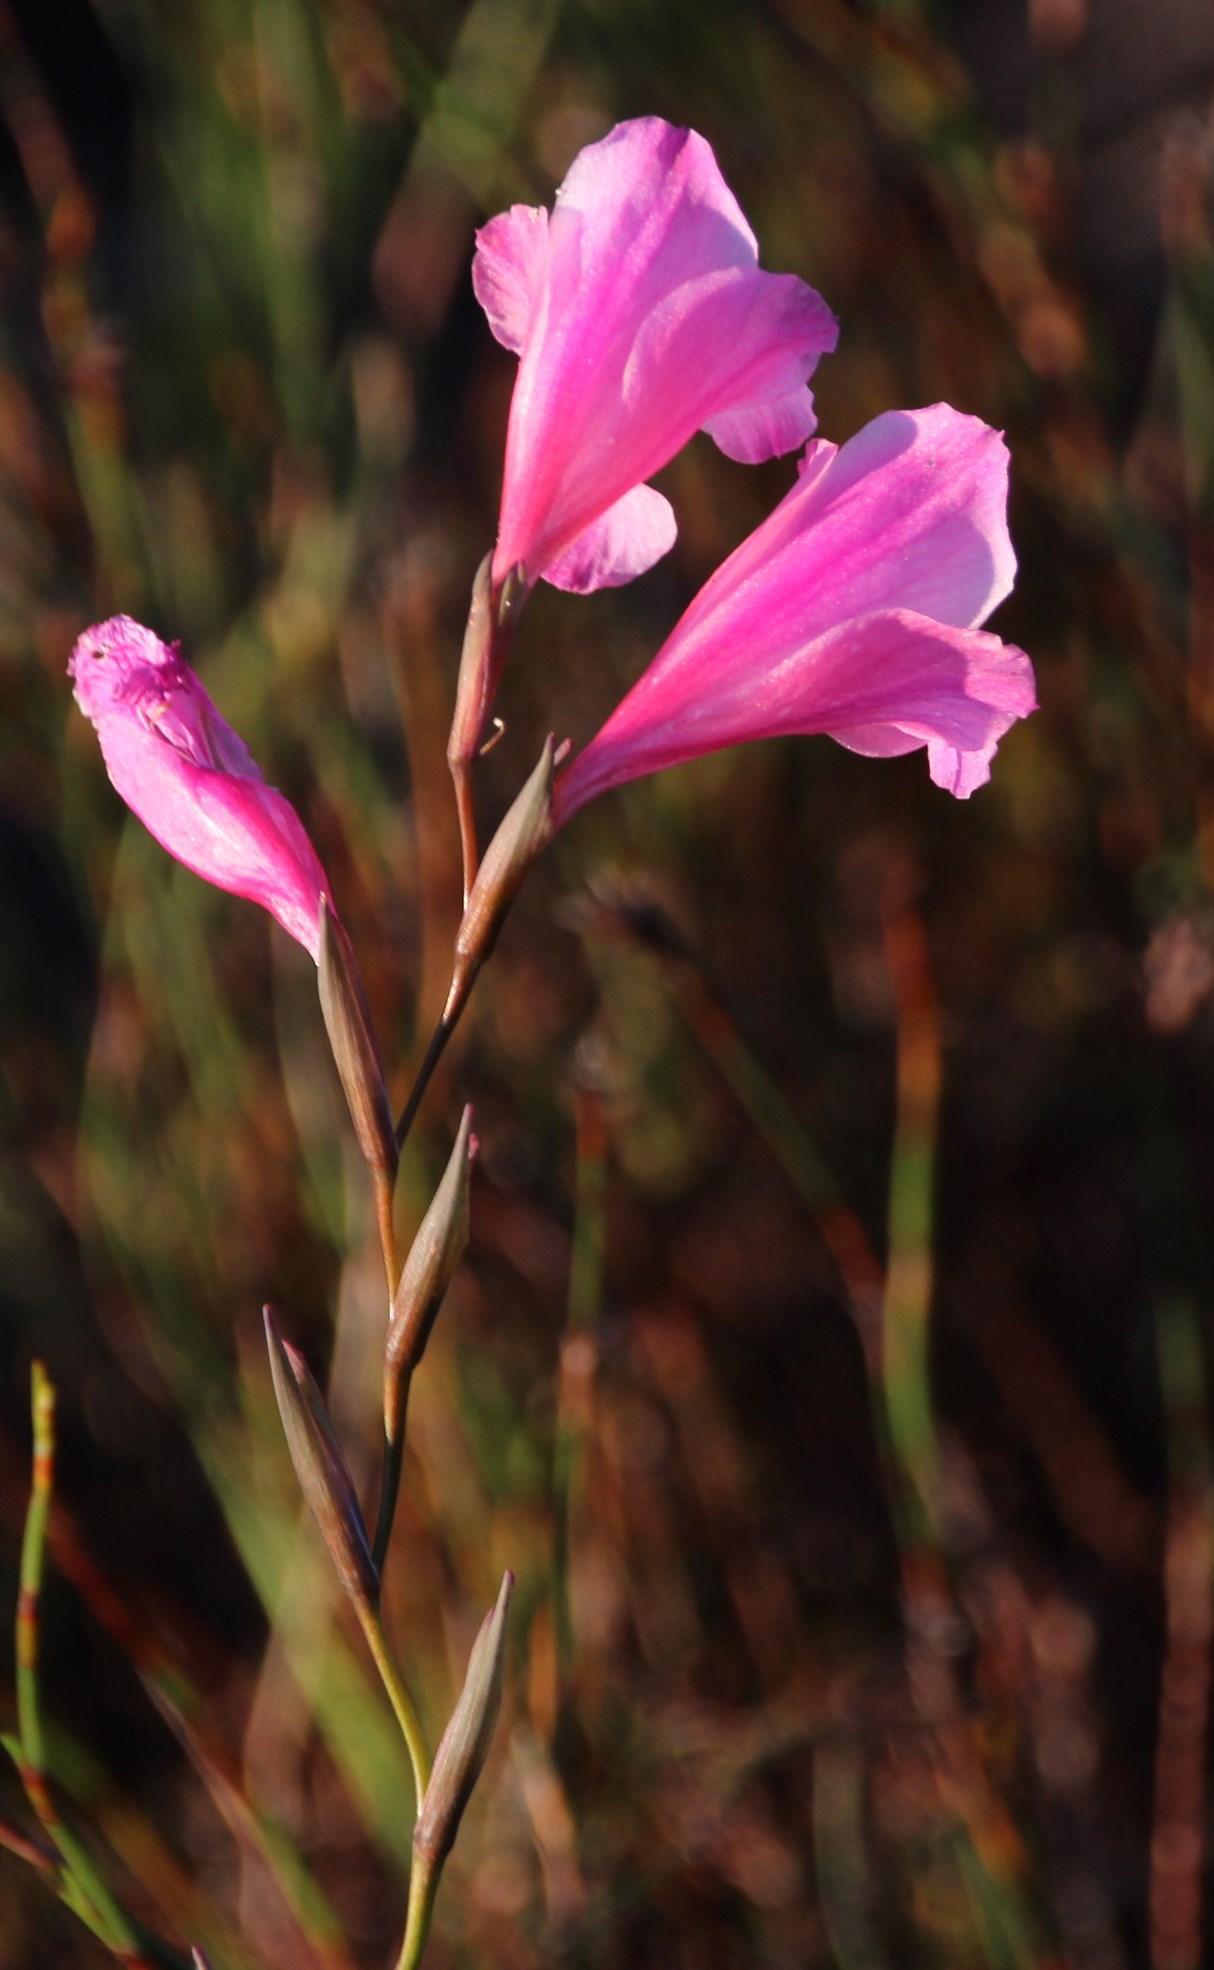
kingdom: Plantae
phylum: Tracheophyta
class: Liliopsida
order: Asparagales
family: Iridaceae
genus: Gladiolus
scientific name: Gladiolus hirsutus
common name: Small pink afrikaner
